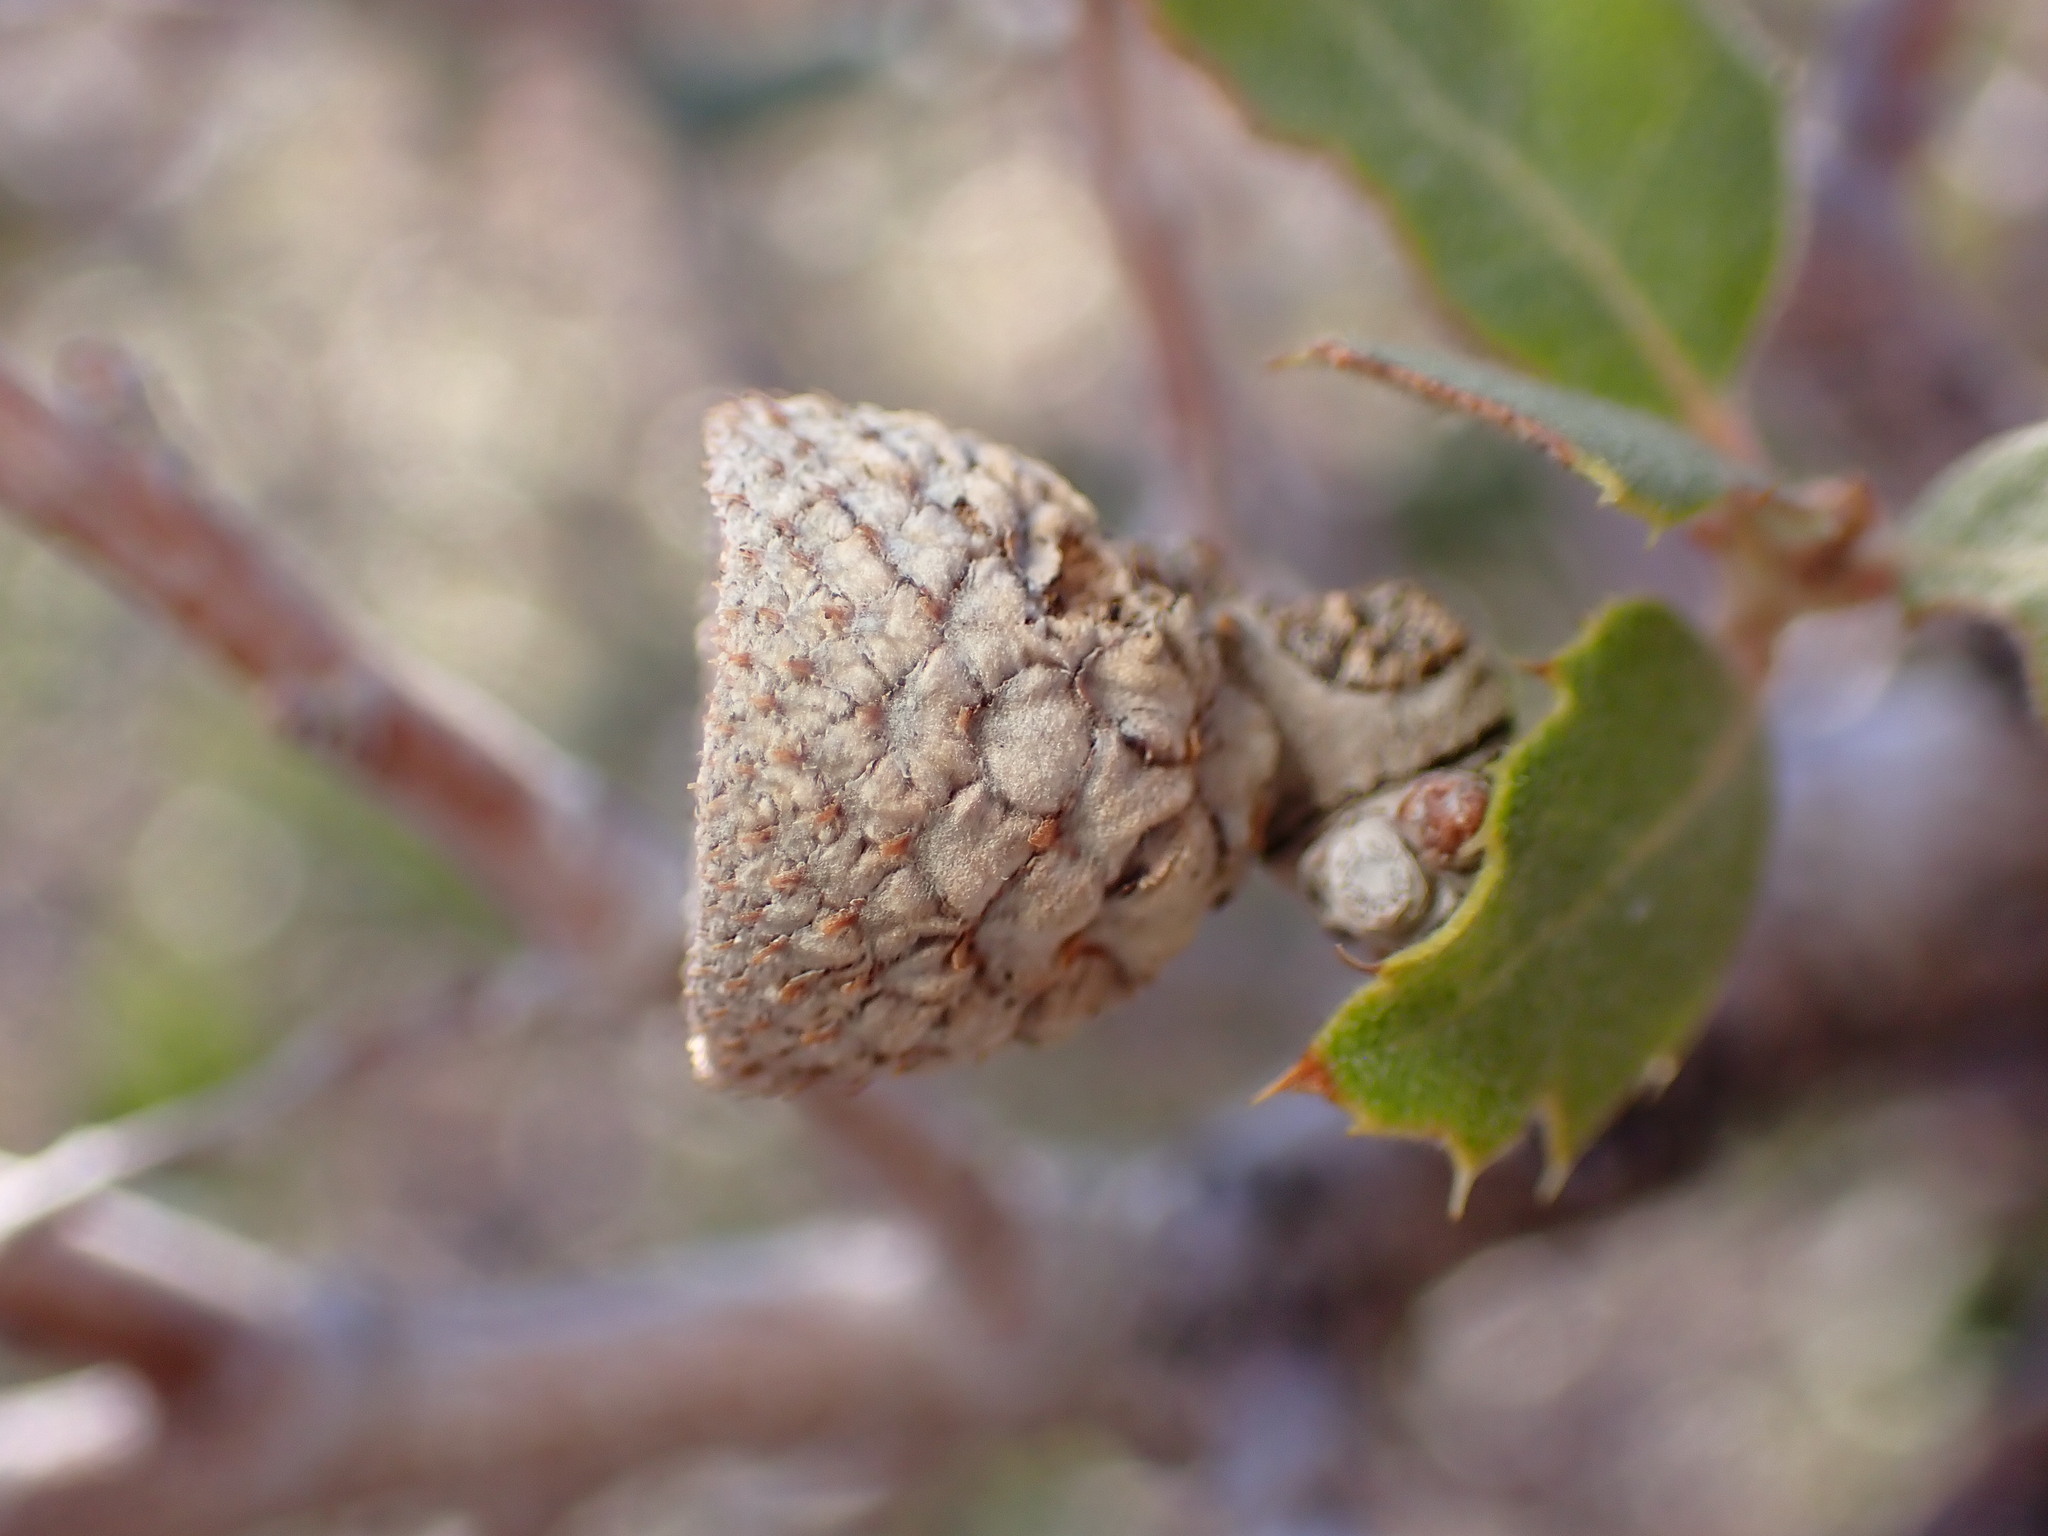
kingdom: Plantae
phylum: Tracheophyta
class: Magnoliopsida
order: Fagales
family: Fagaceae
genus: Quercus
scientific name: Quercus cornelius-mulleri
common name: Muller oak
